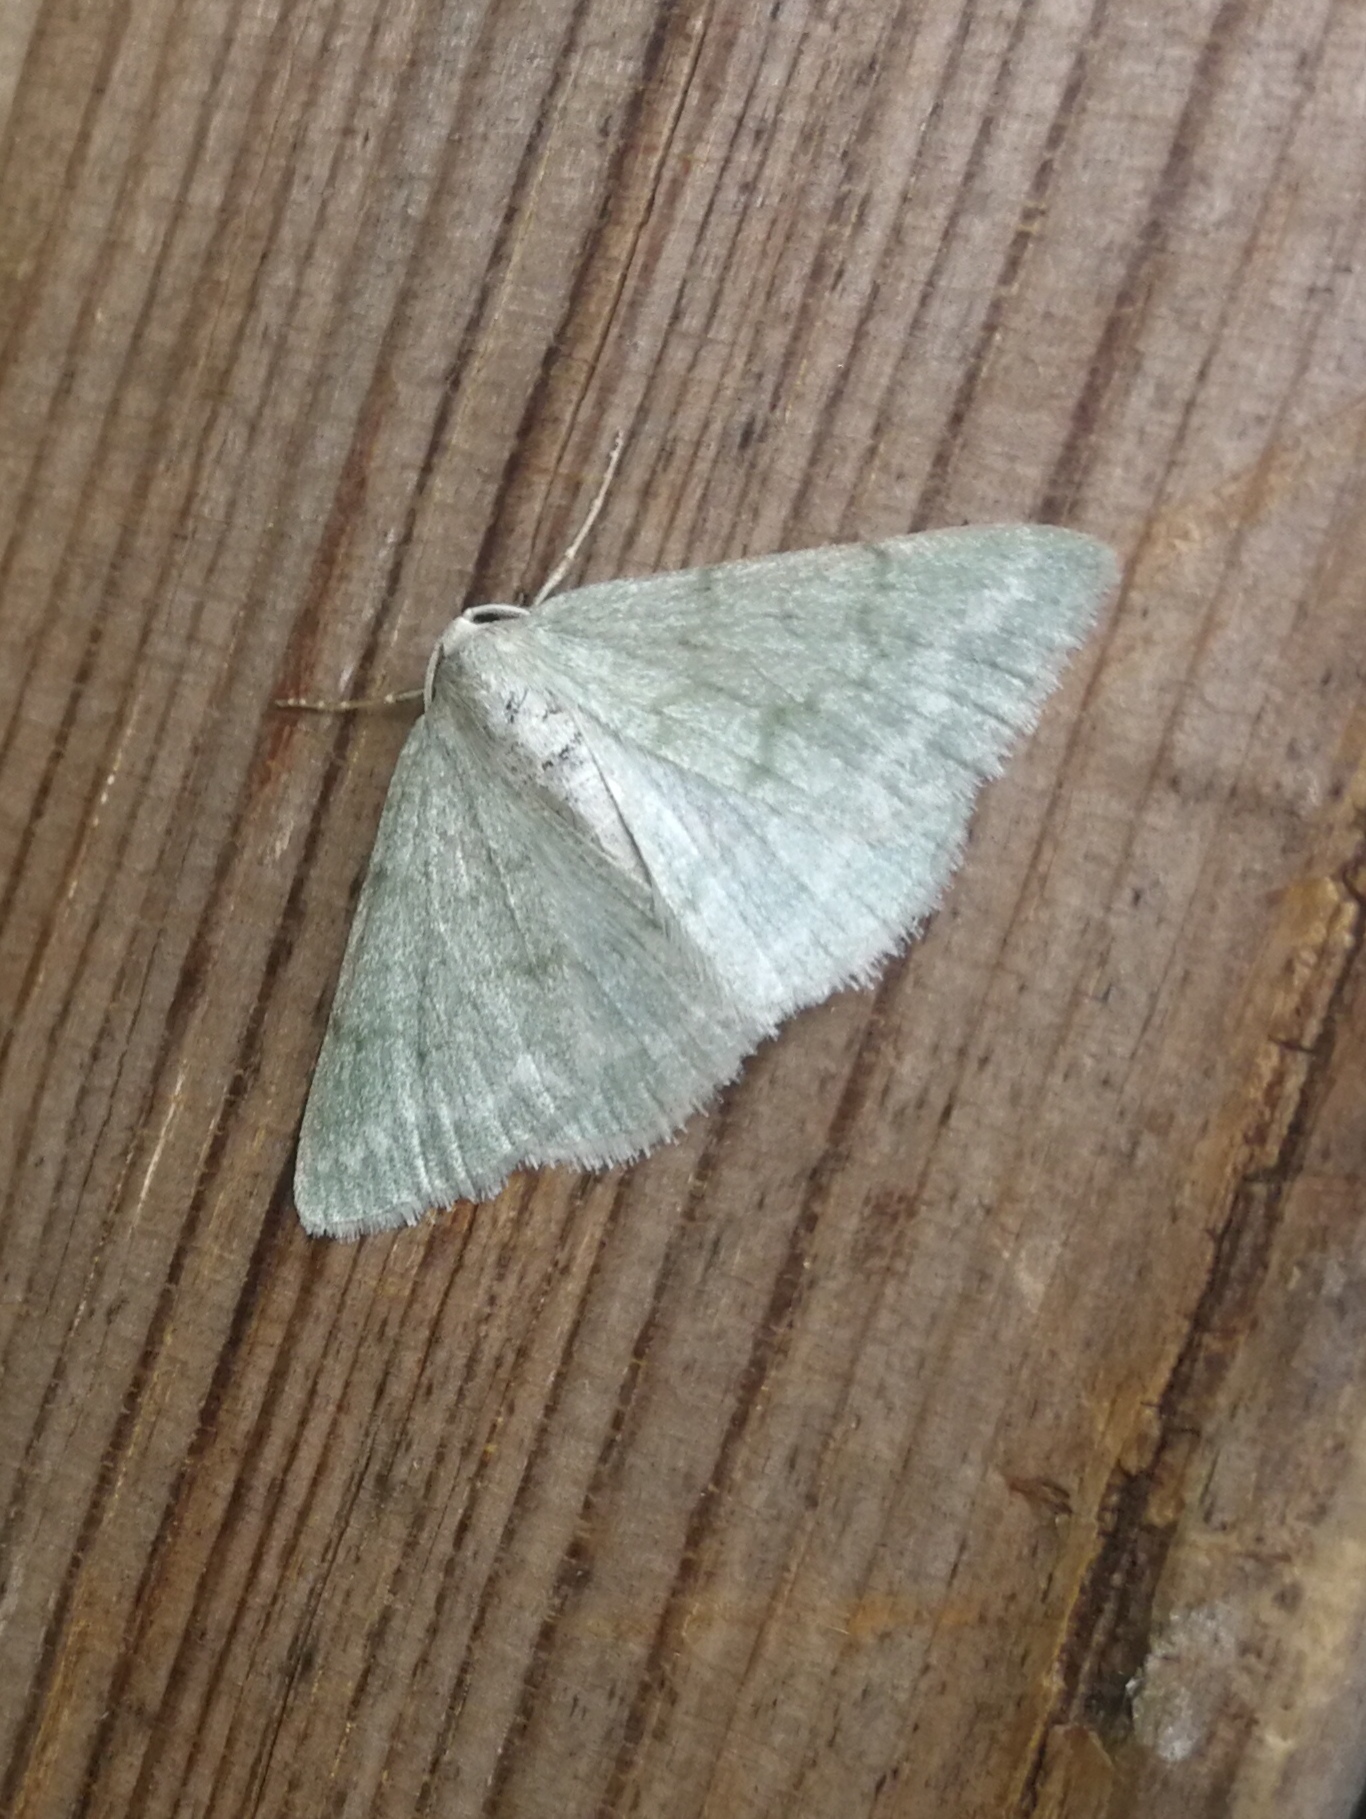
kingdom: Animalia
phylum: Arthropoda
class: Insecta
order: Lepidoptera
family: Geometridae
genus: Pseudoterpna
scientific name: Pseudoterpna pruinata
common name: Grass emerald
